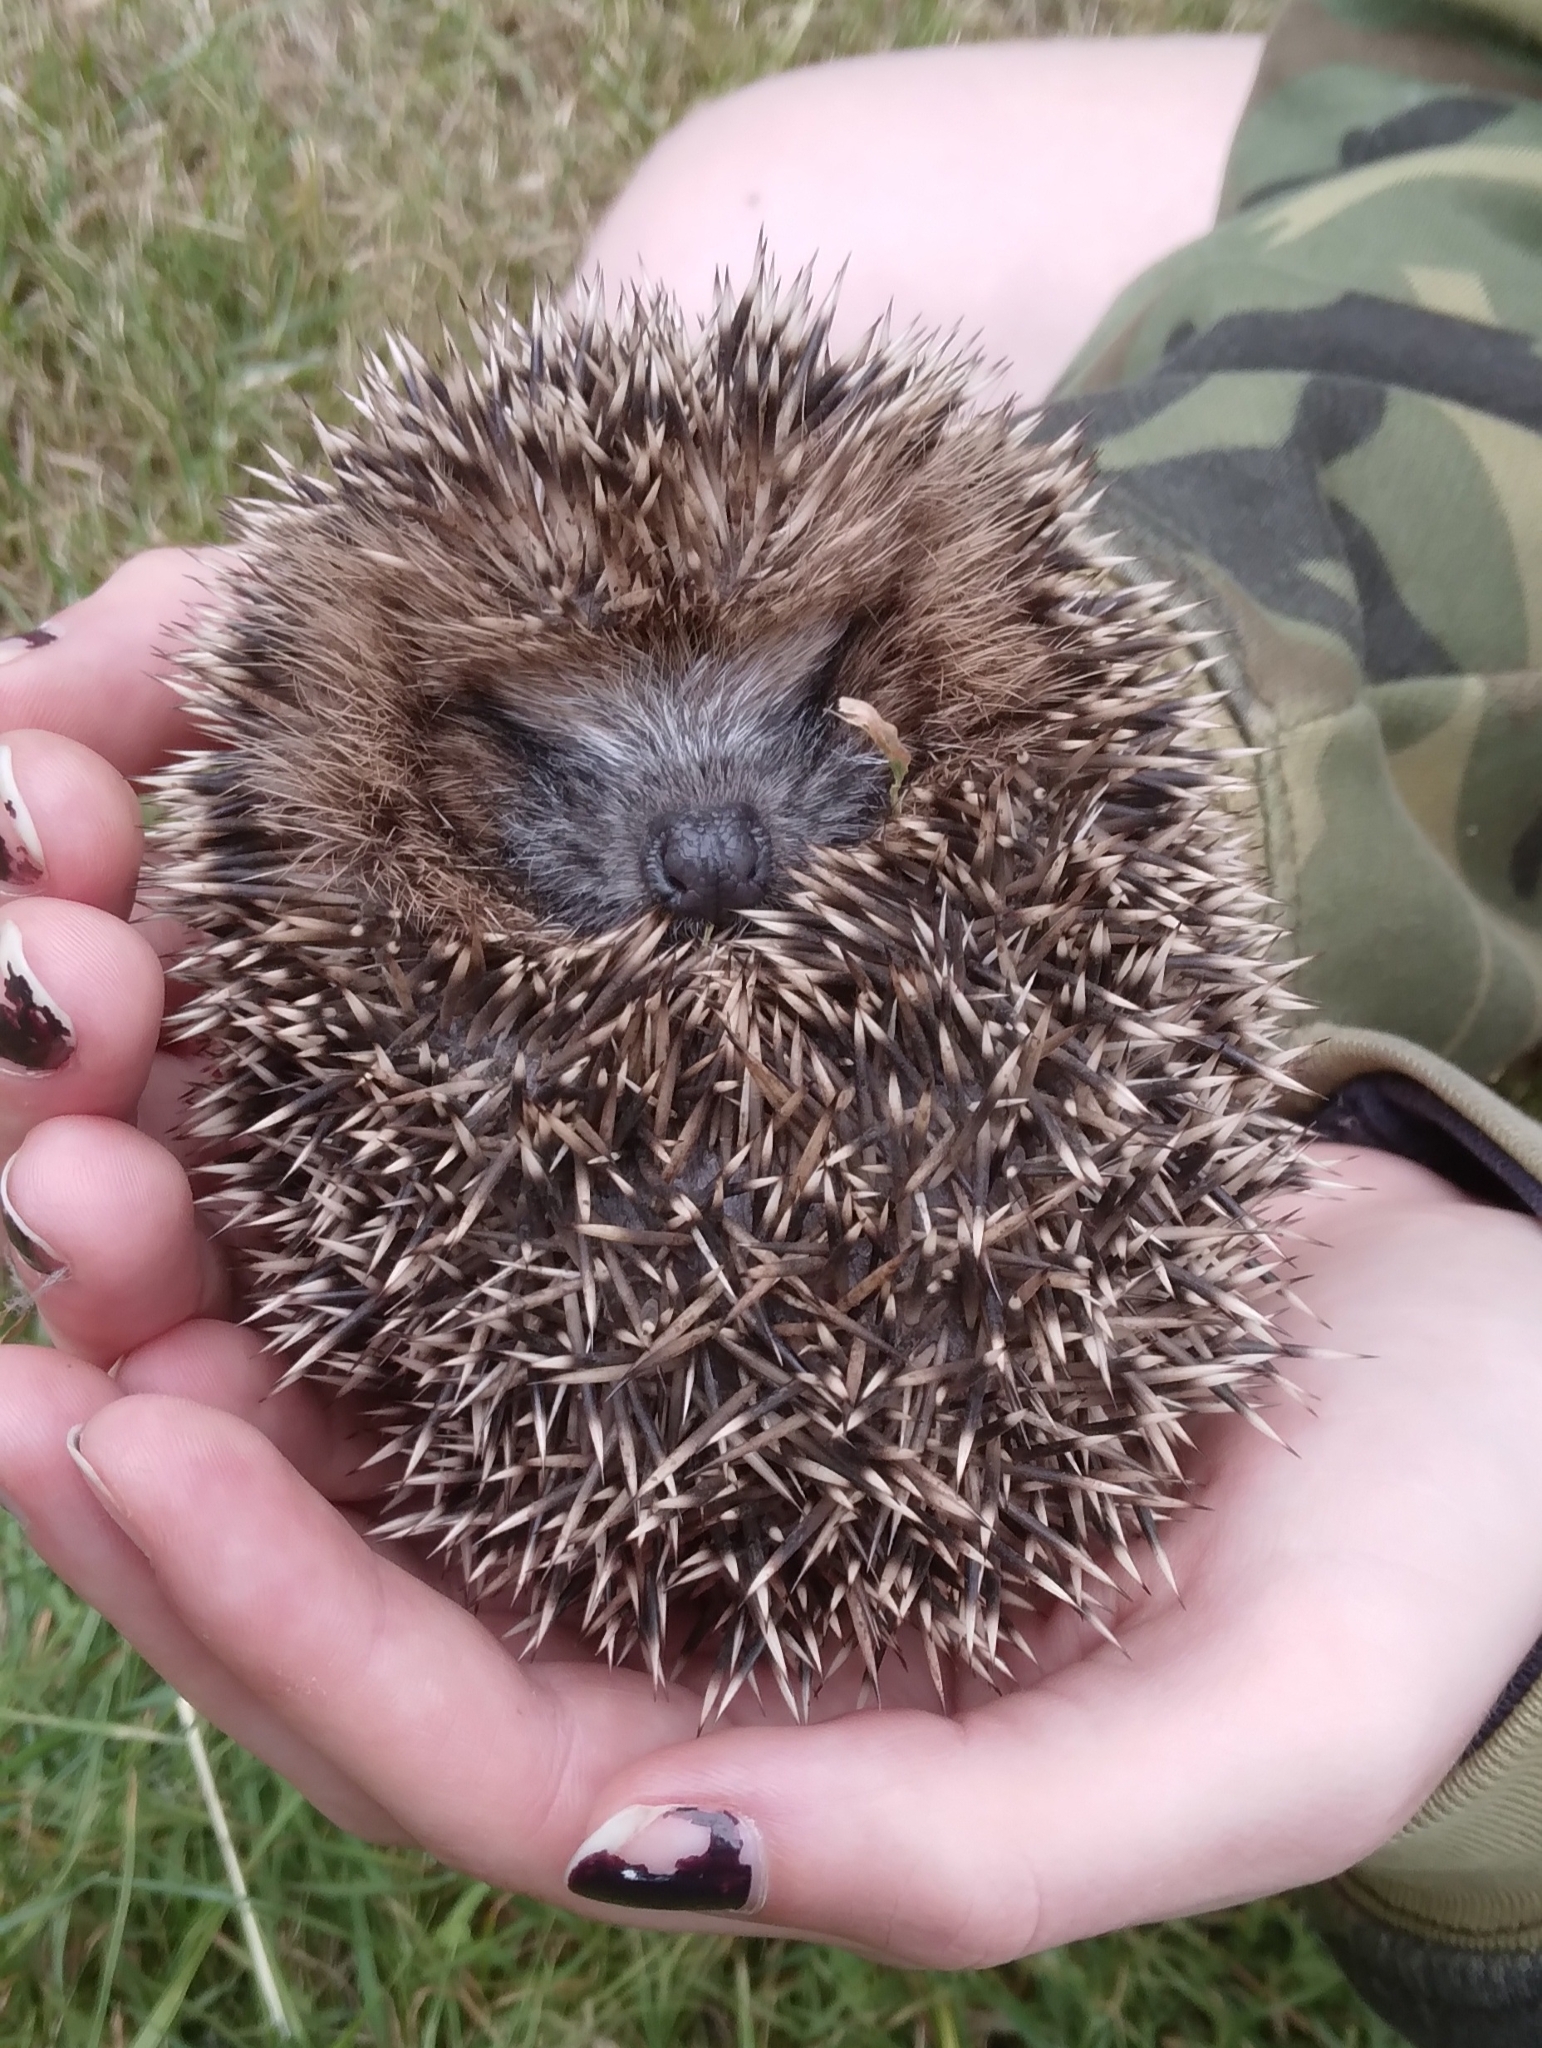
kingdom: Animalia
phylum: Chordata
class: Mammalia
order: Erinaceomorpha
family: Erinaceidae
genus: Erinaceus
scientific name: Erinaceus europaeus
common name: West european hedgehog
